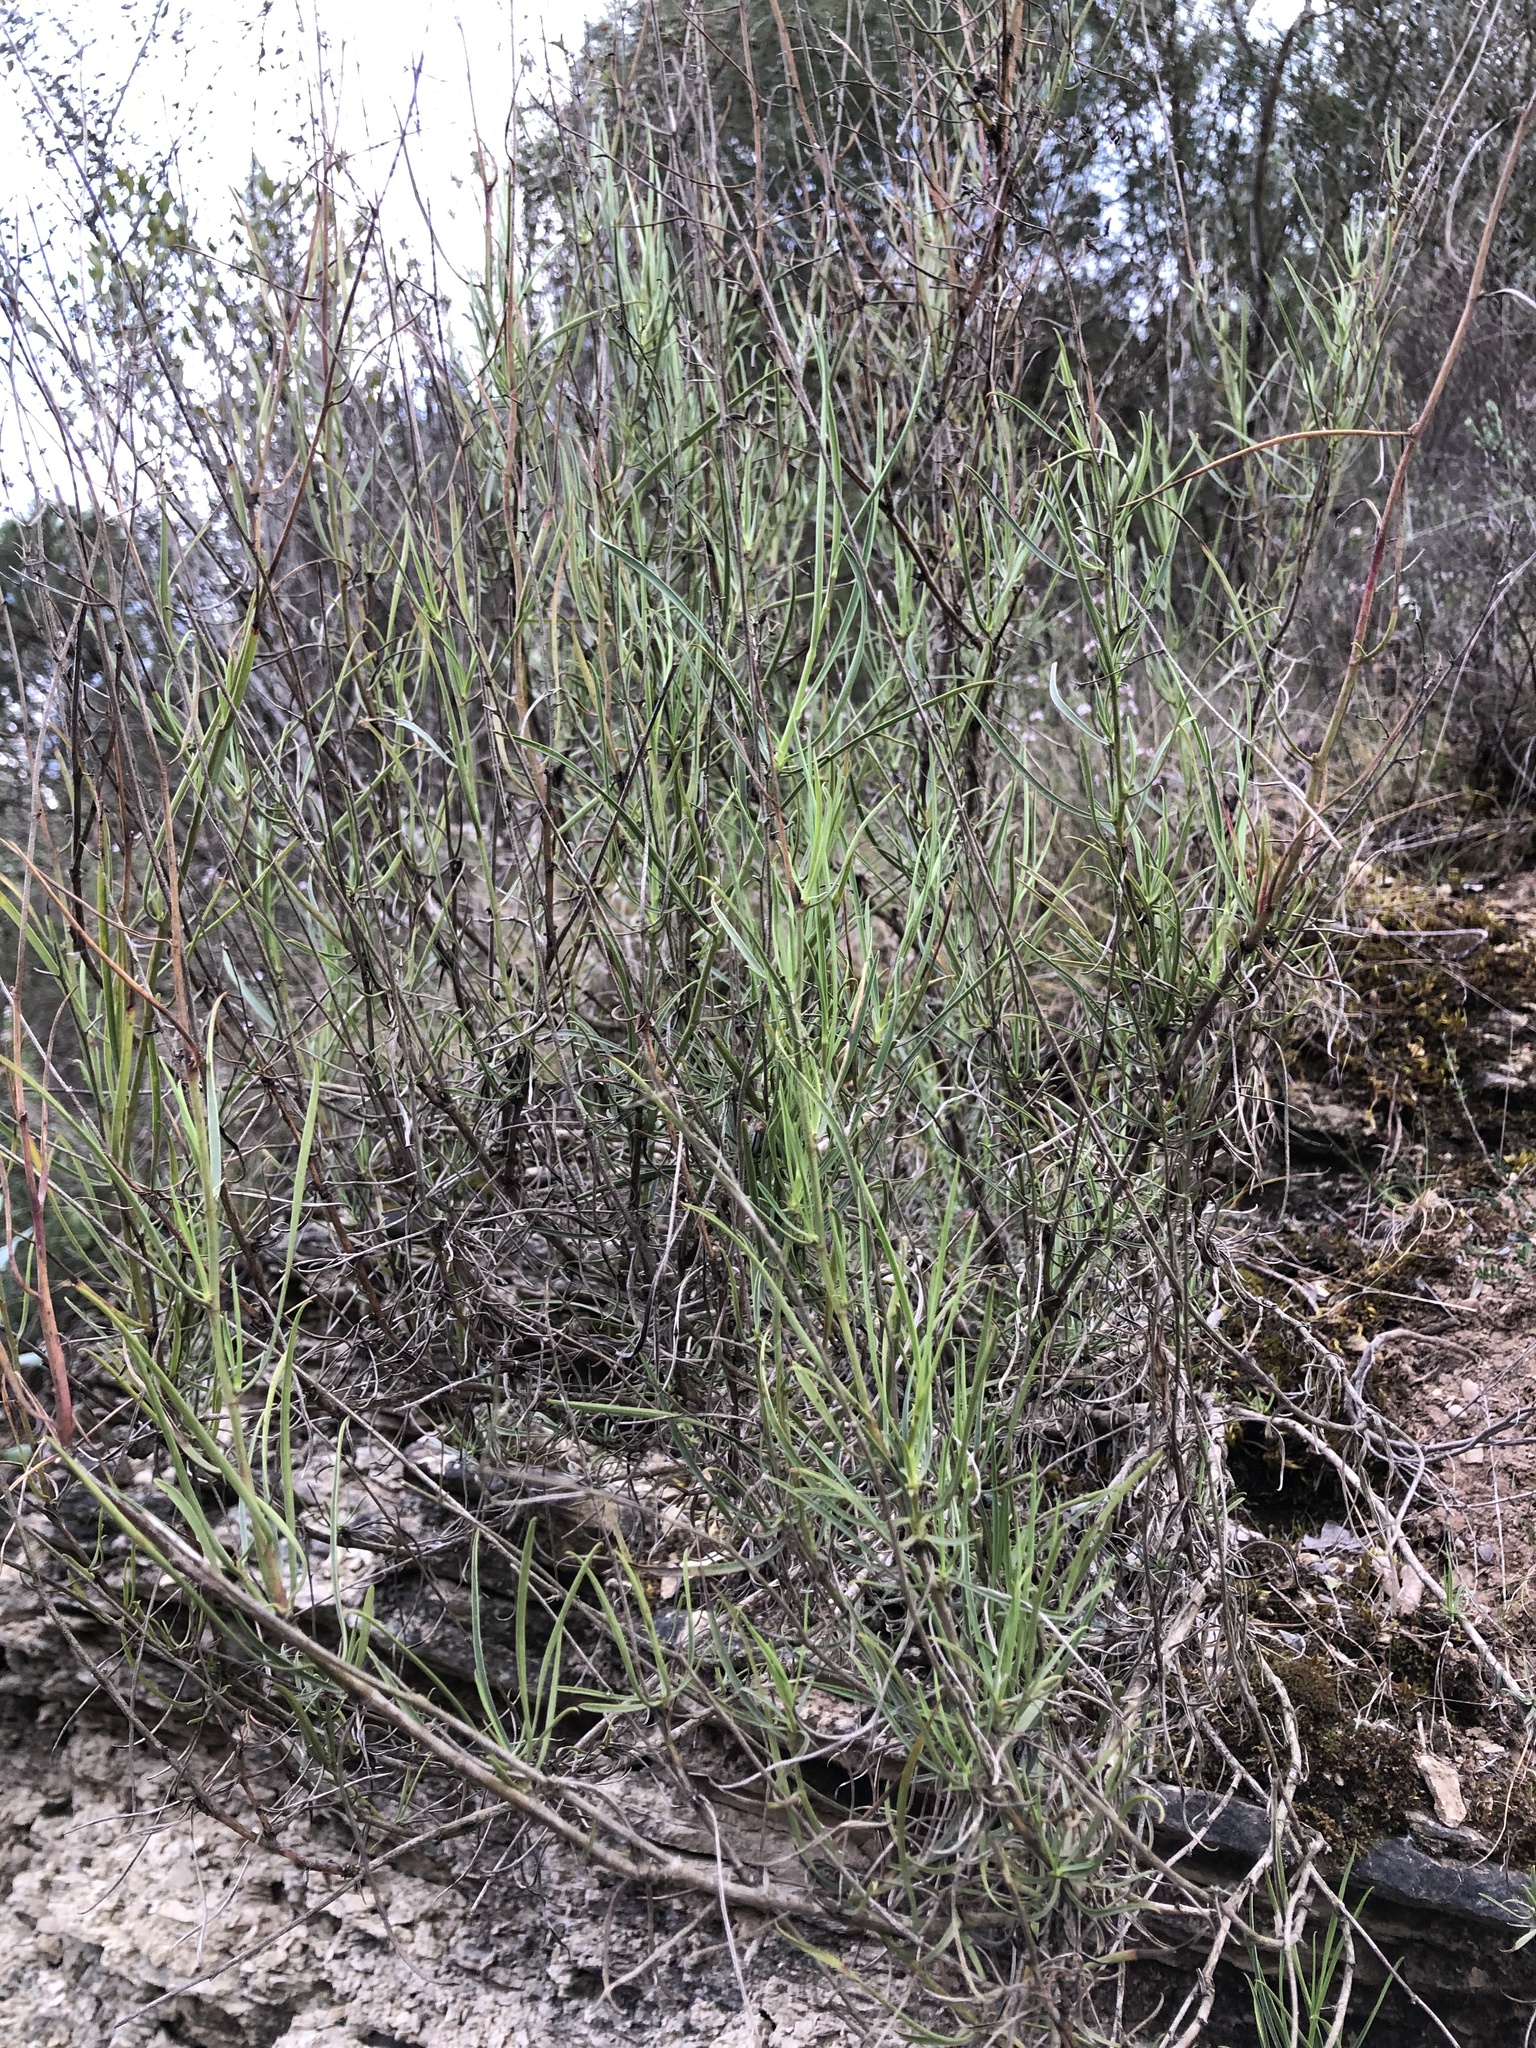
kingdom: Plantae
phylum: Tracheophyta
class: Magnoliopsida
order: Apiales
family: Apiaceae
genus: Bupleurum
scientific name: Bupleurum fruticescens
